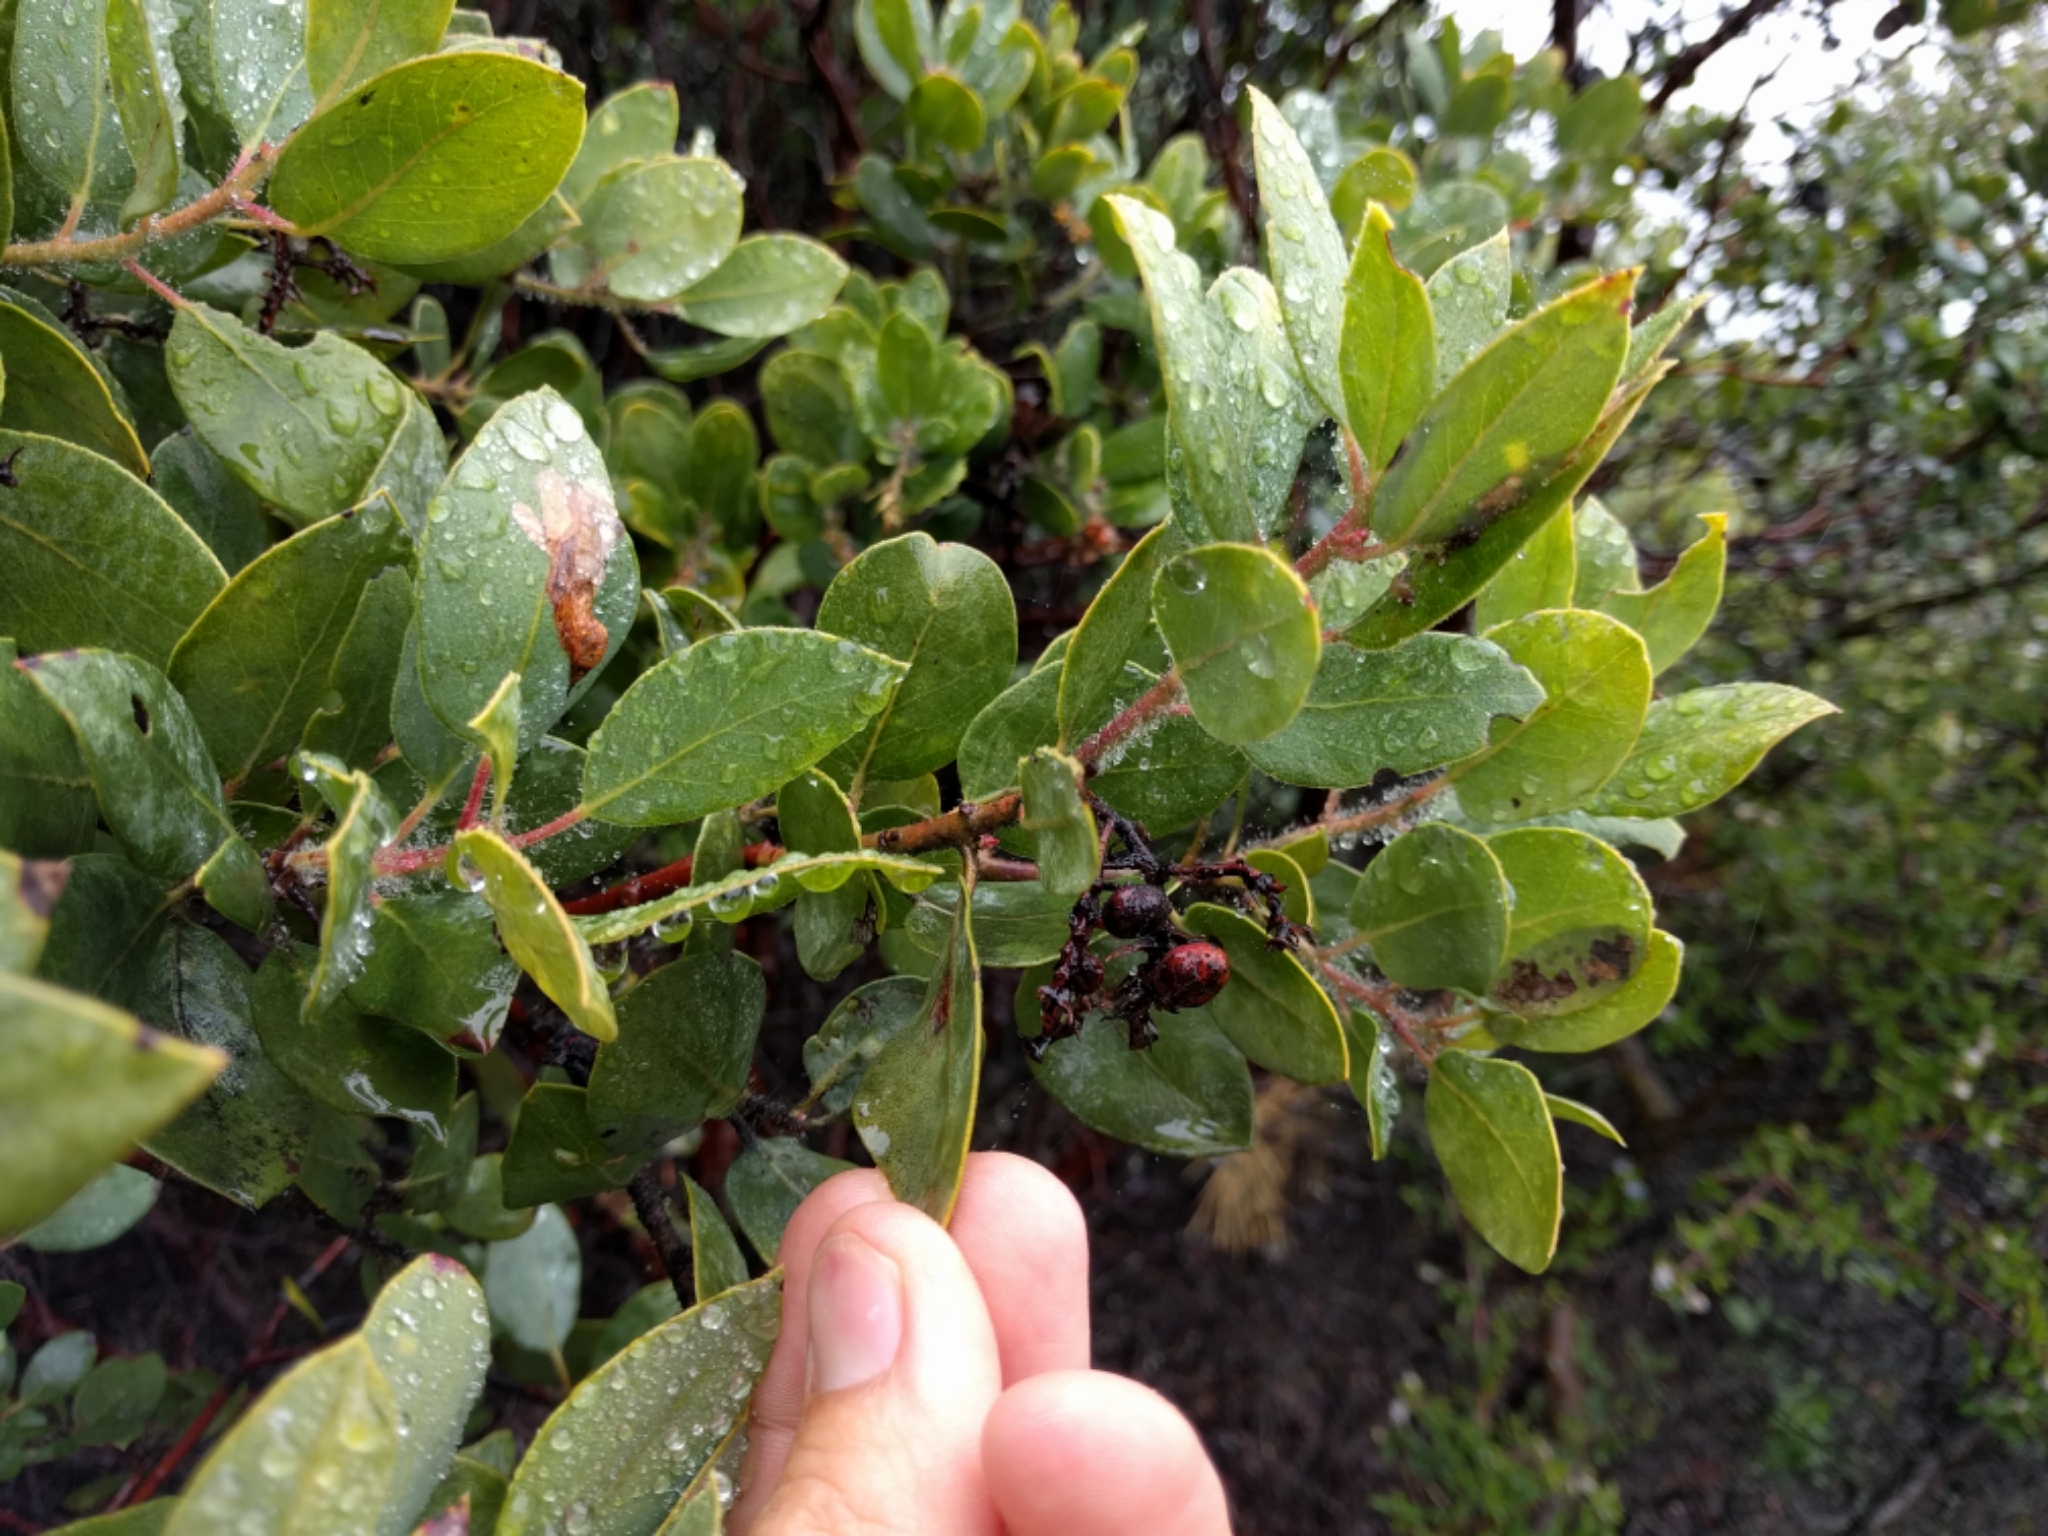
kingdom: Plantae
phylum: Tracheophyta
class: Magnoliopsida
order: Ericales
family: Ericaceae
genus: Arctostaphylos
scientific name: Arctostaphylos crustacea
